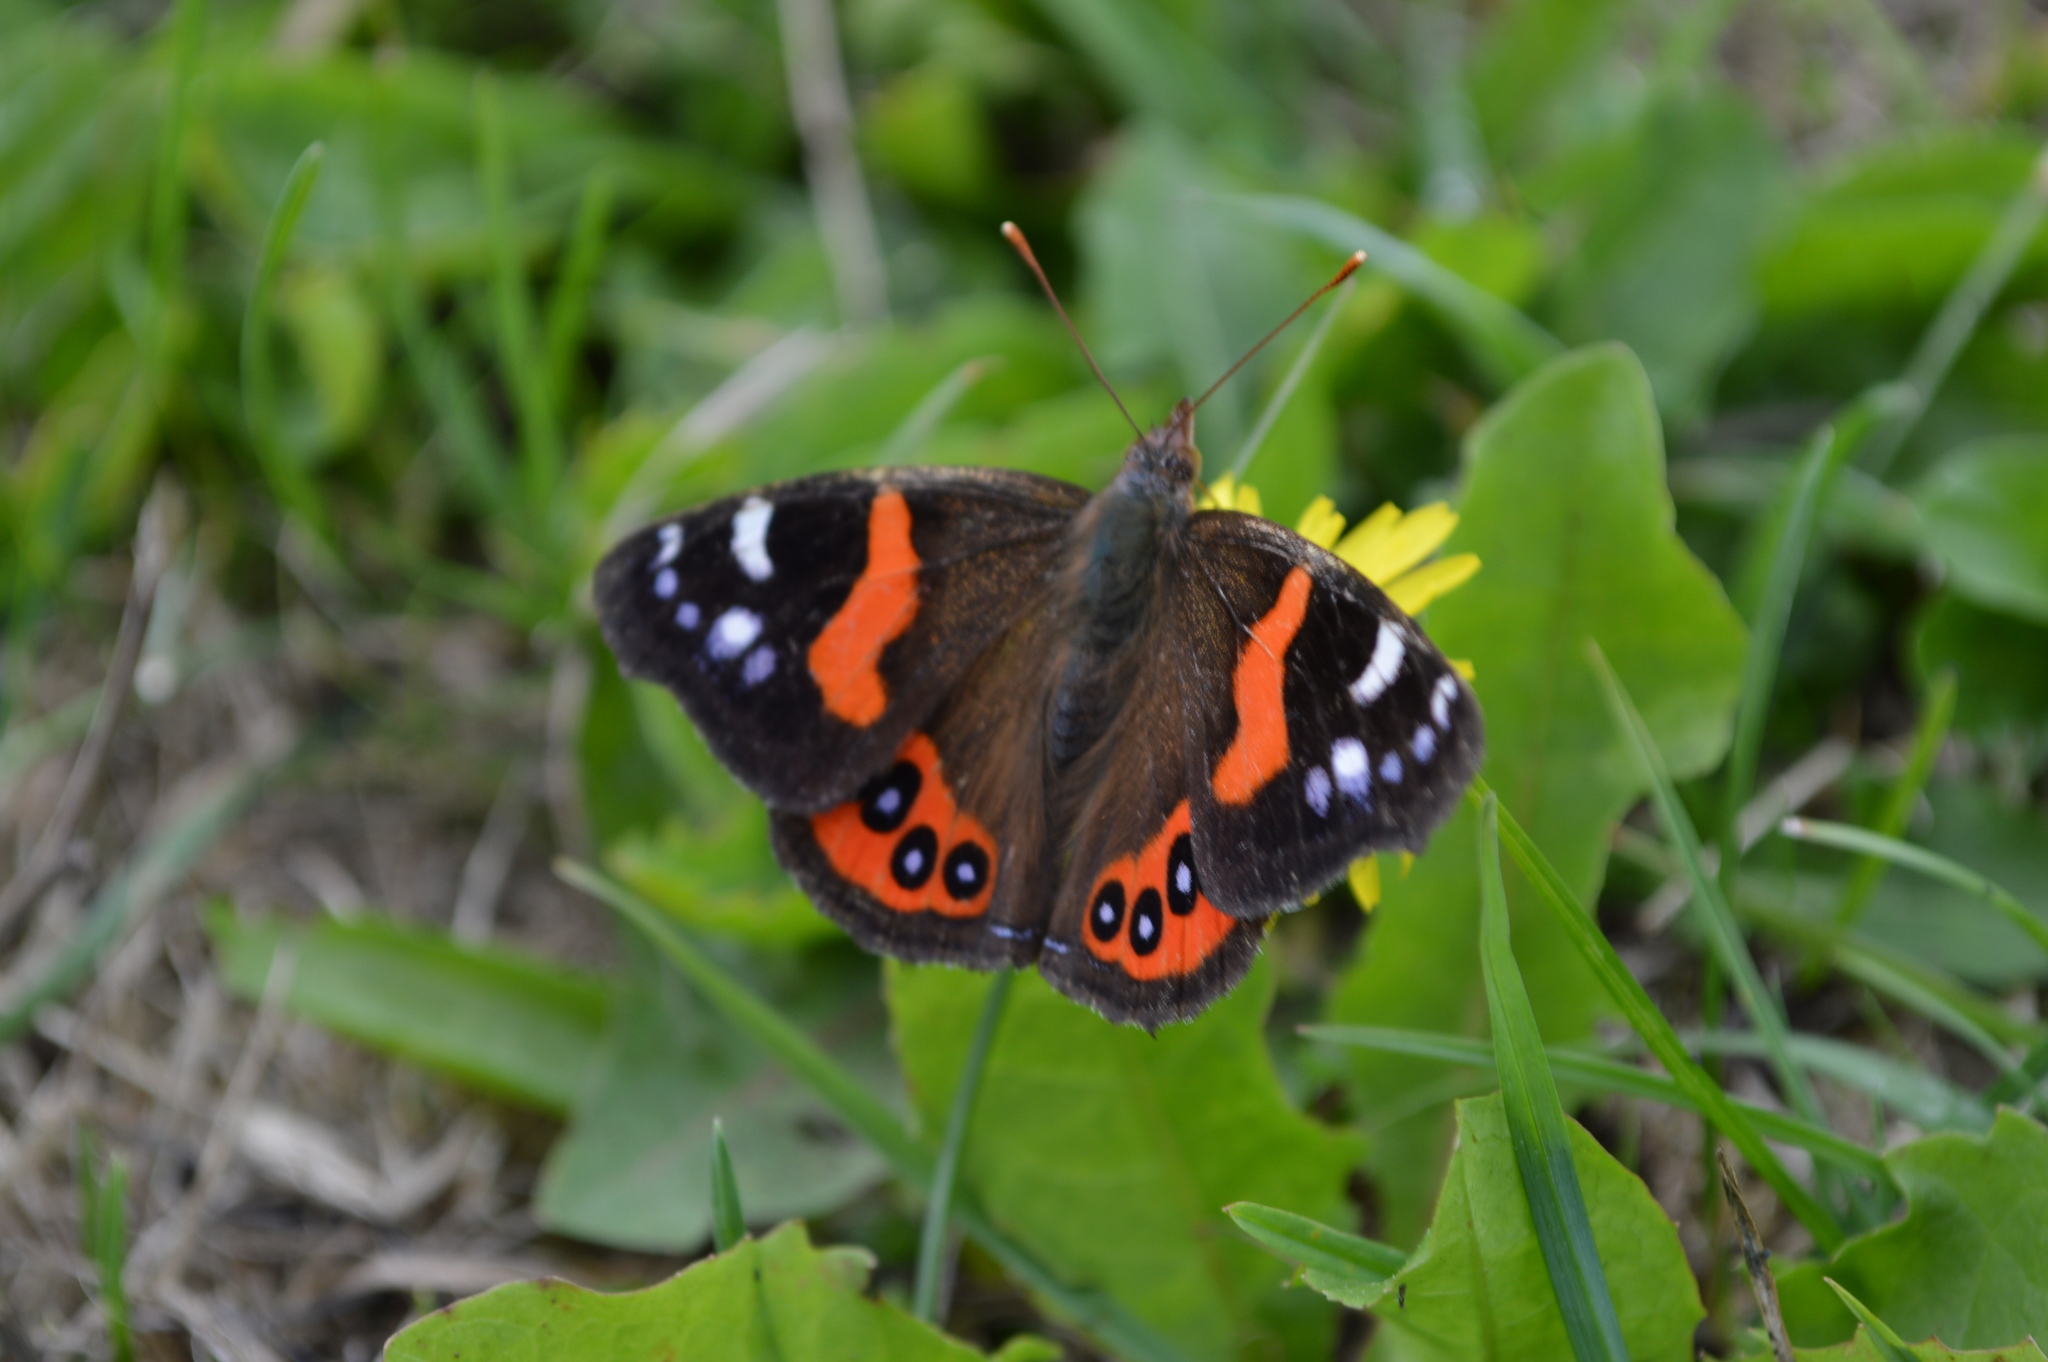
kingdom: Animalia
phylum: Arthropoda
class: Insecta
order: Lepidoptera
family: Nymphalidae
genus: Vanessa
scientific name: Vanessa gonerilla
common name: New zealand red admiral
